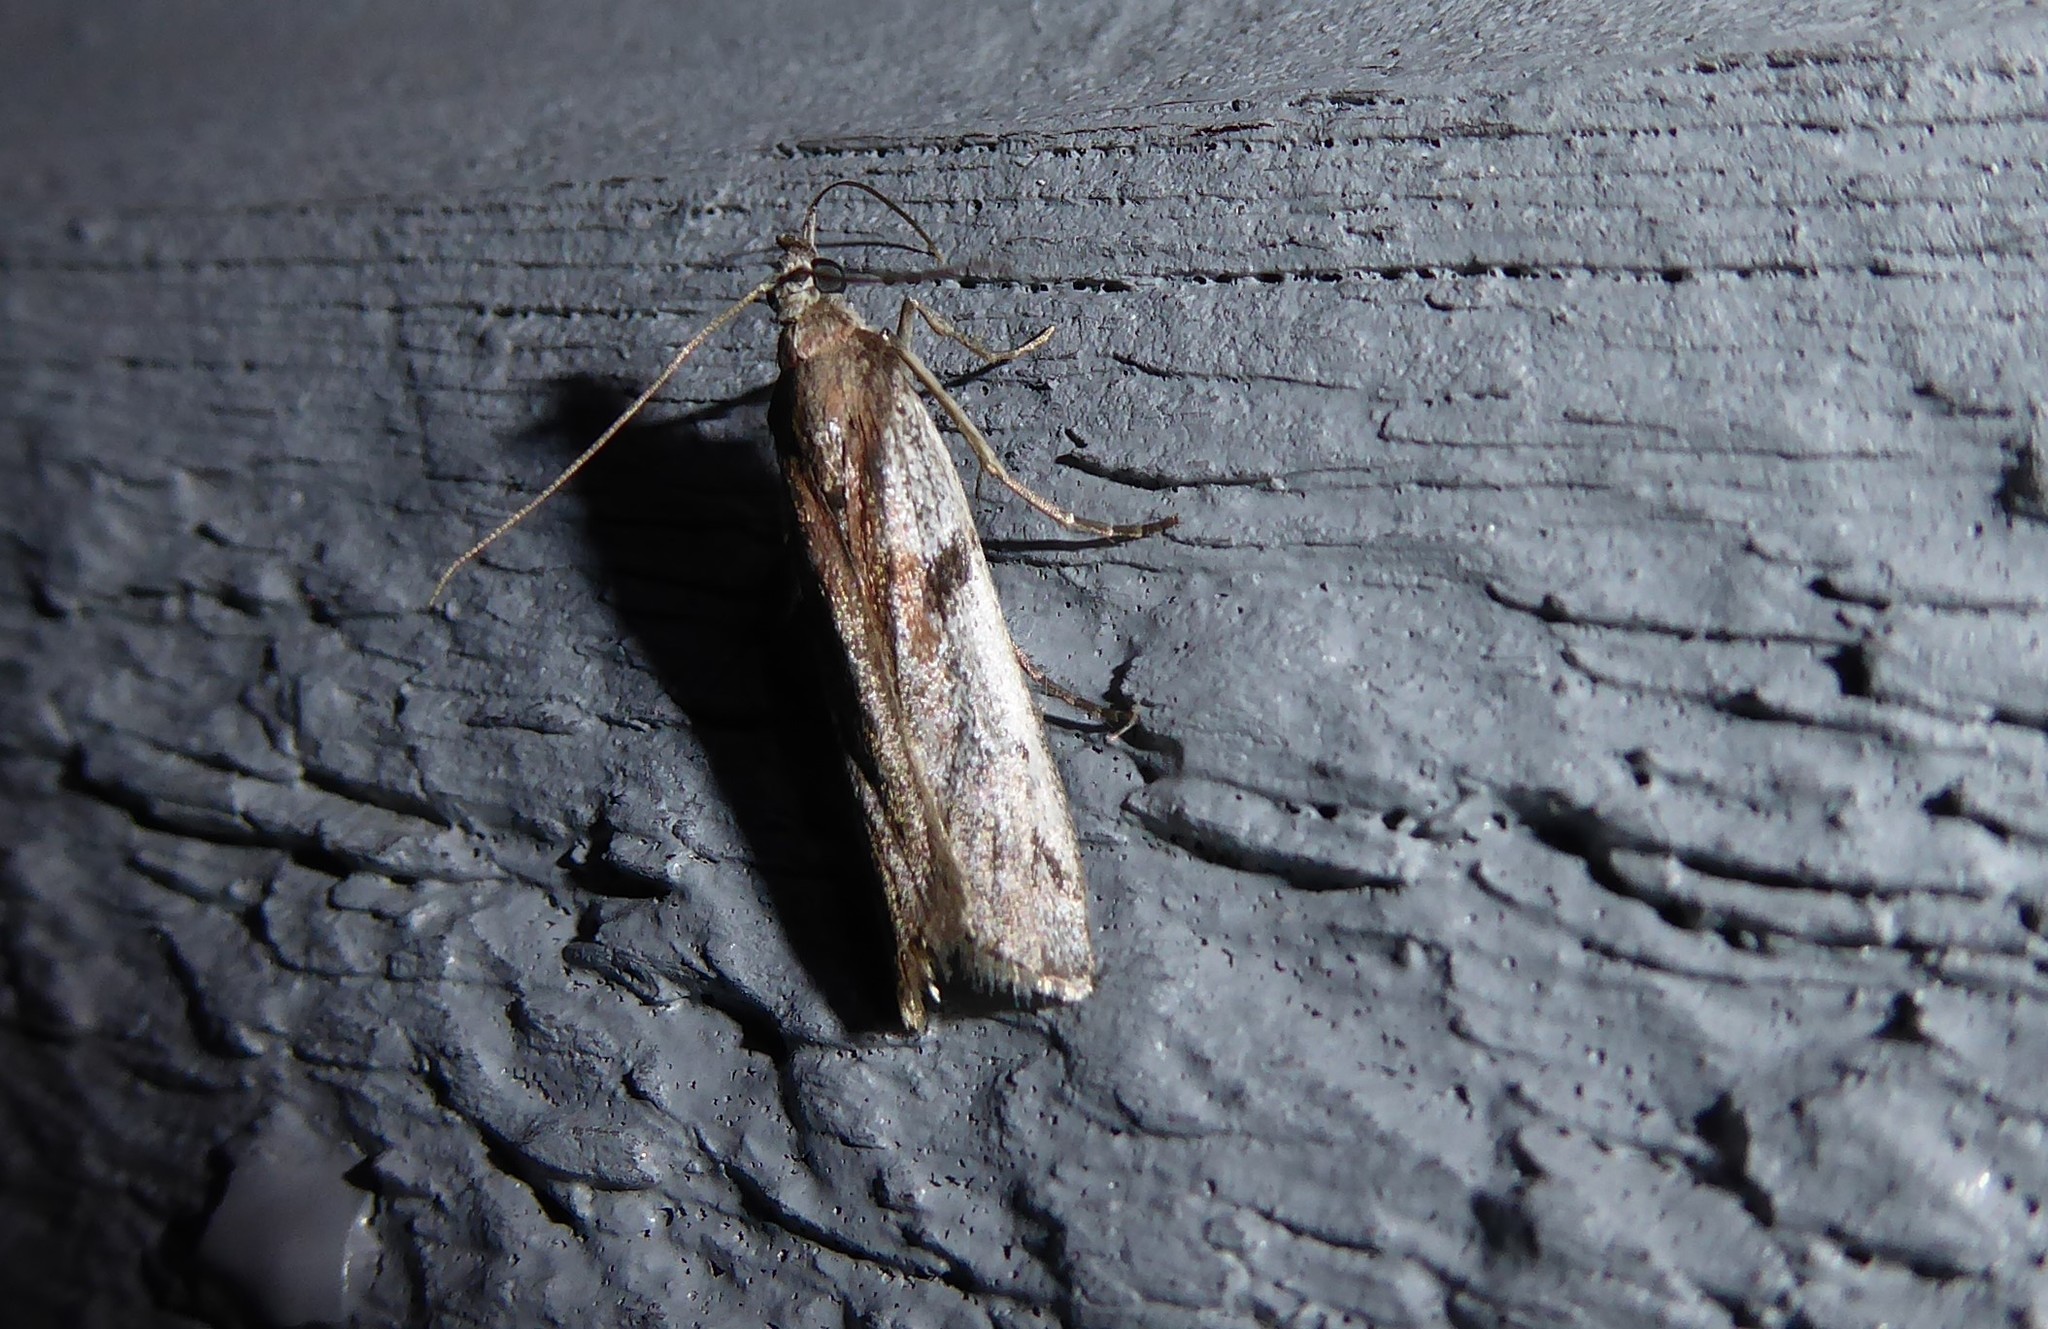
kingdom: Animalia
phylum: Arthropoda
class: Insecta
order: Lepidoptera
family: Pyralidae
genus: Patagoniodes
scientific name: Patagoniodes farinaria
